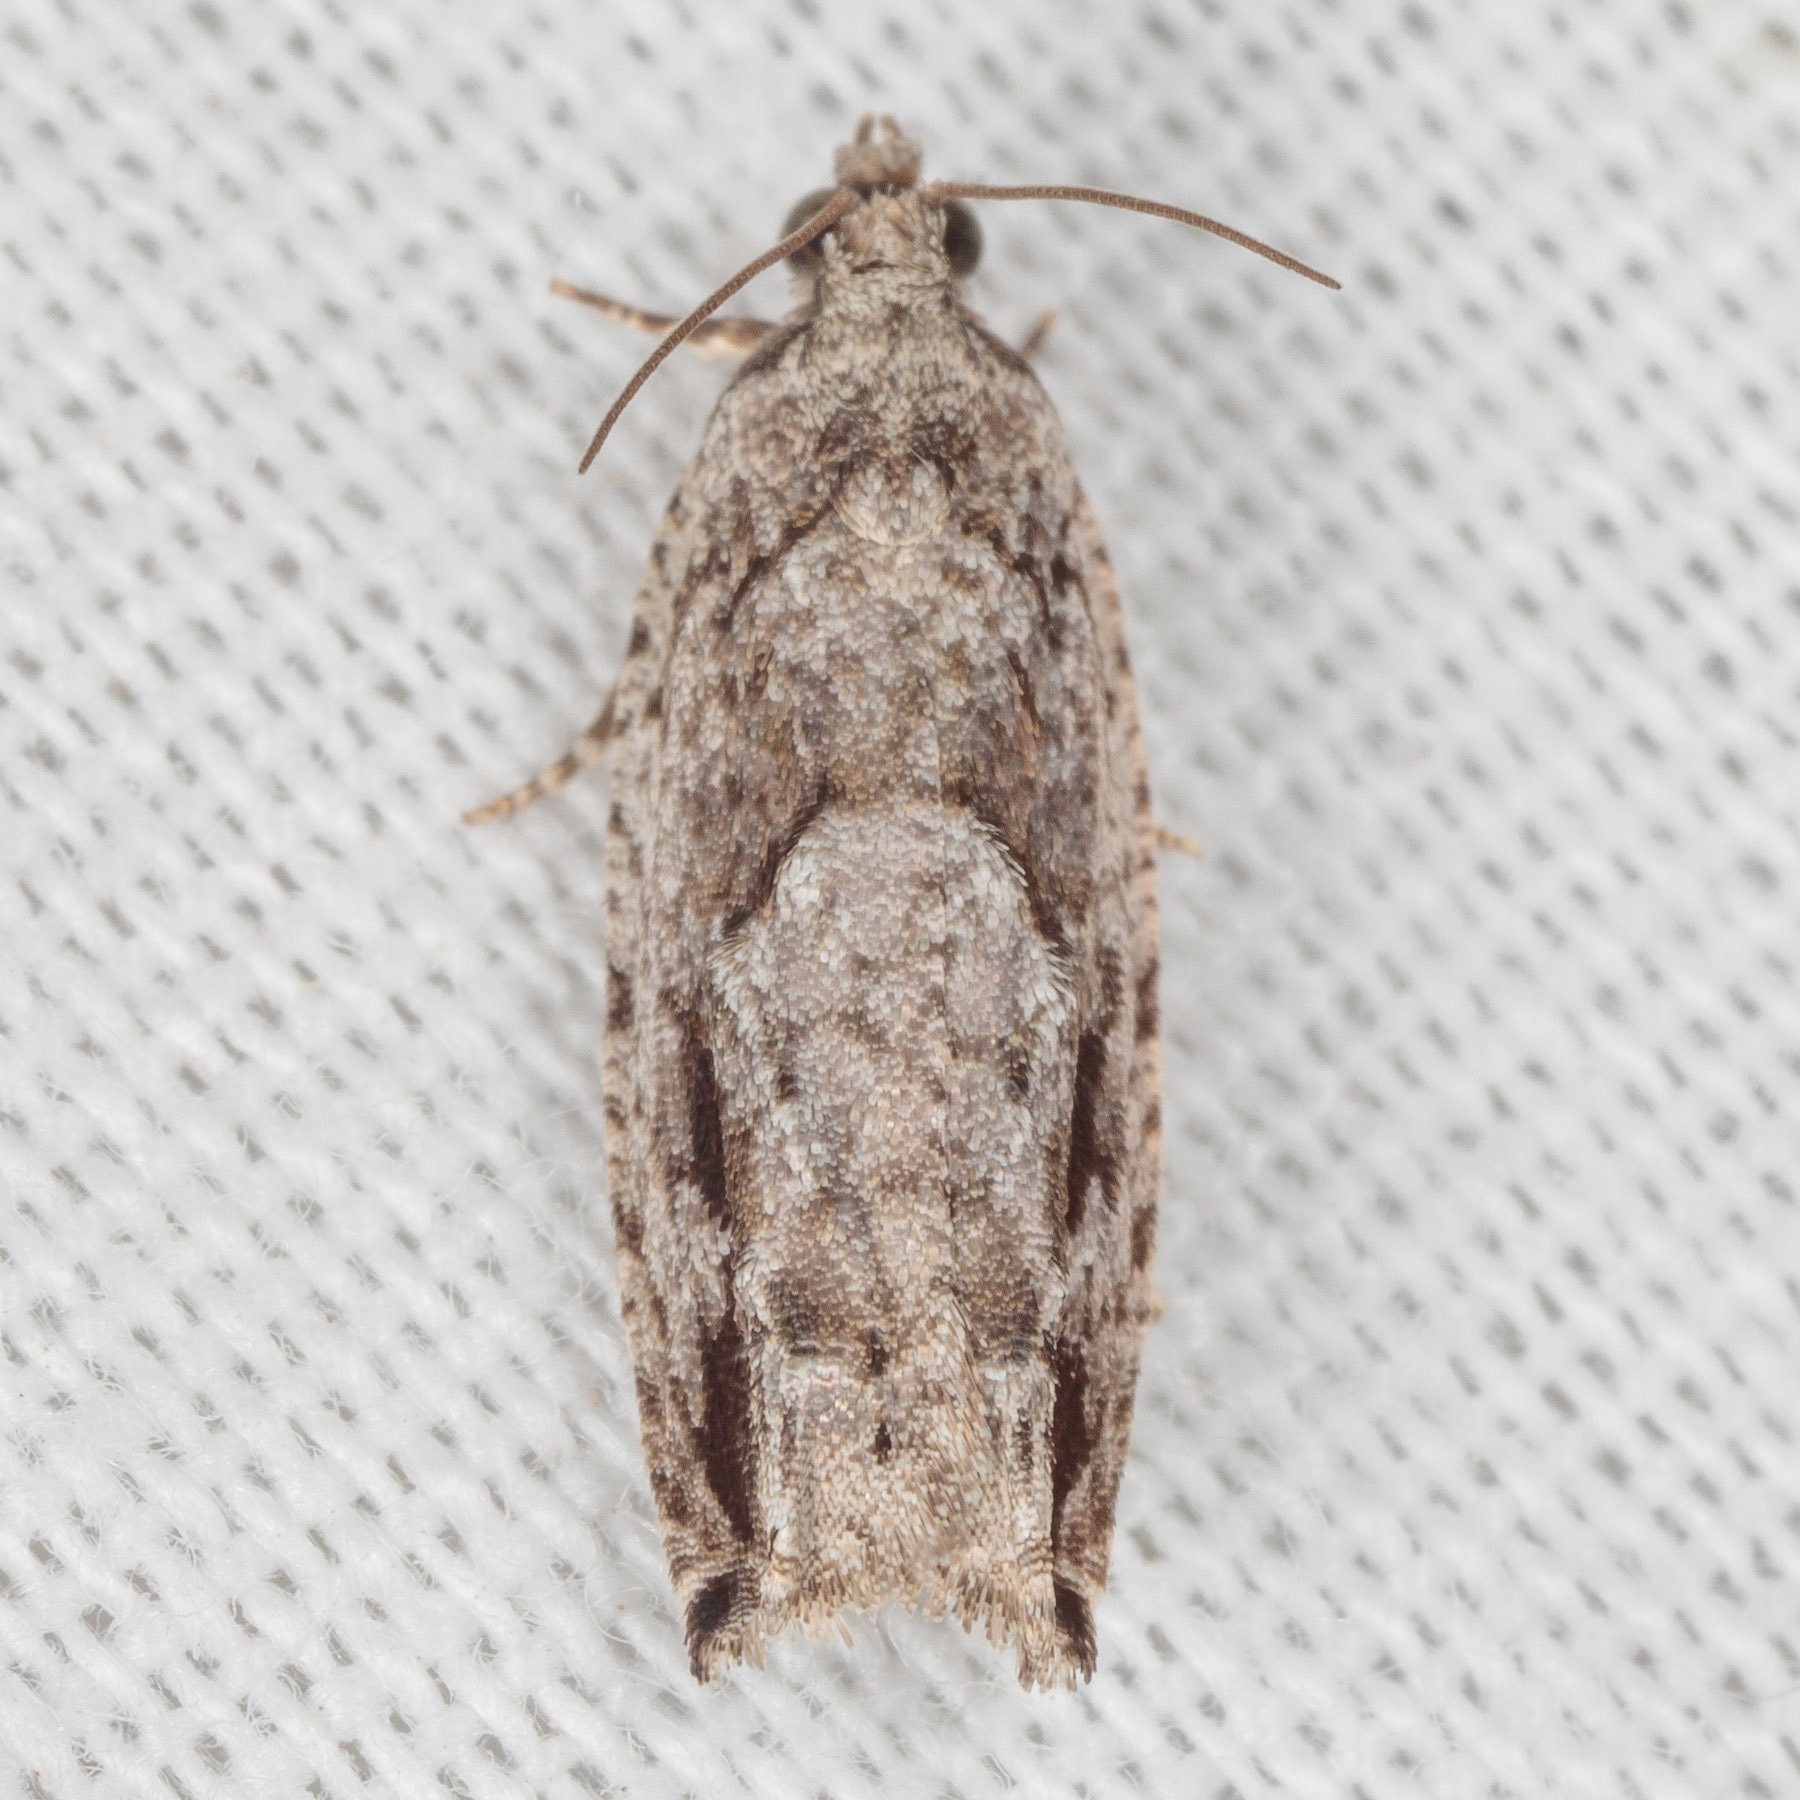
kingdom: Animalia
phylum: Arthropoda
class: Insecta
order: Lepidoptera
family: Tortricidae
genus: Gretchena
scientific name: Gretchena bolliana
